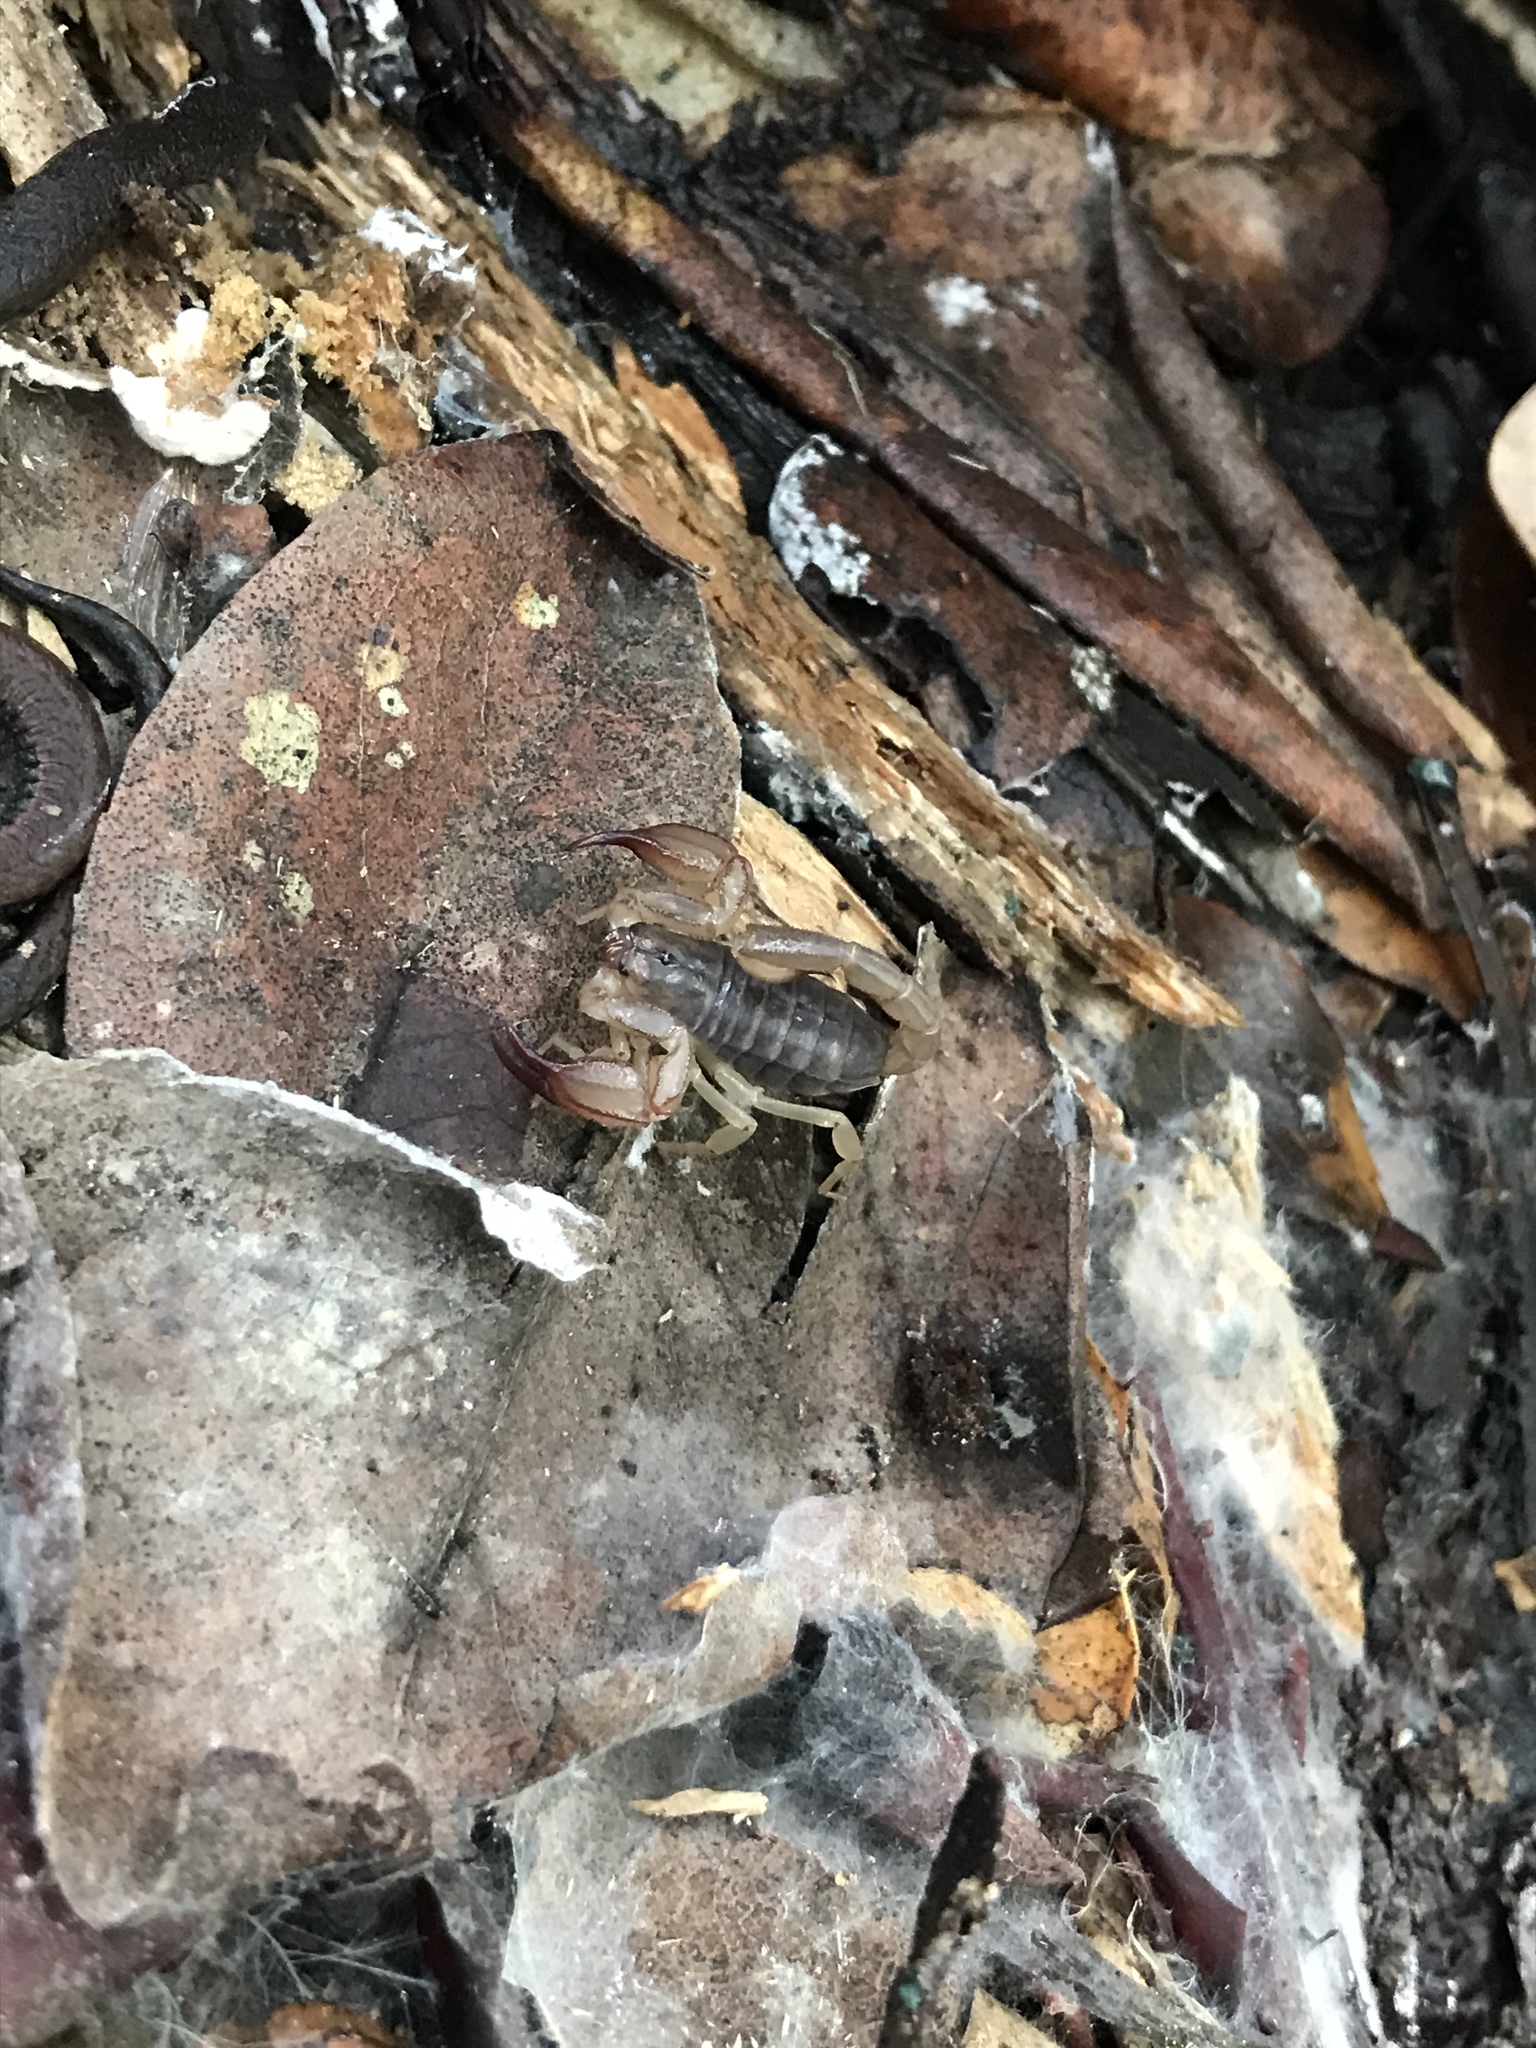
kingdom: Animalia
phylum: Arthropoda
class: Arachnida
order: Scorpiones
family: Chactidae
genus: Uroctonus
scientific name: Uroctonus mordax
